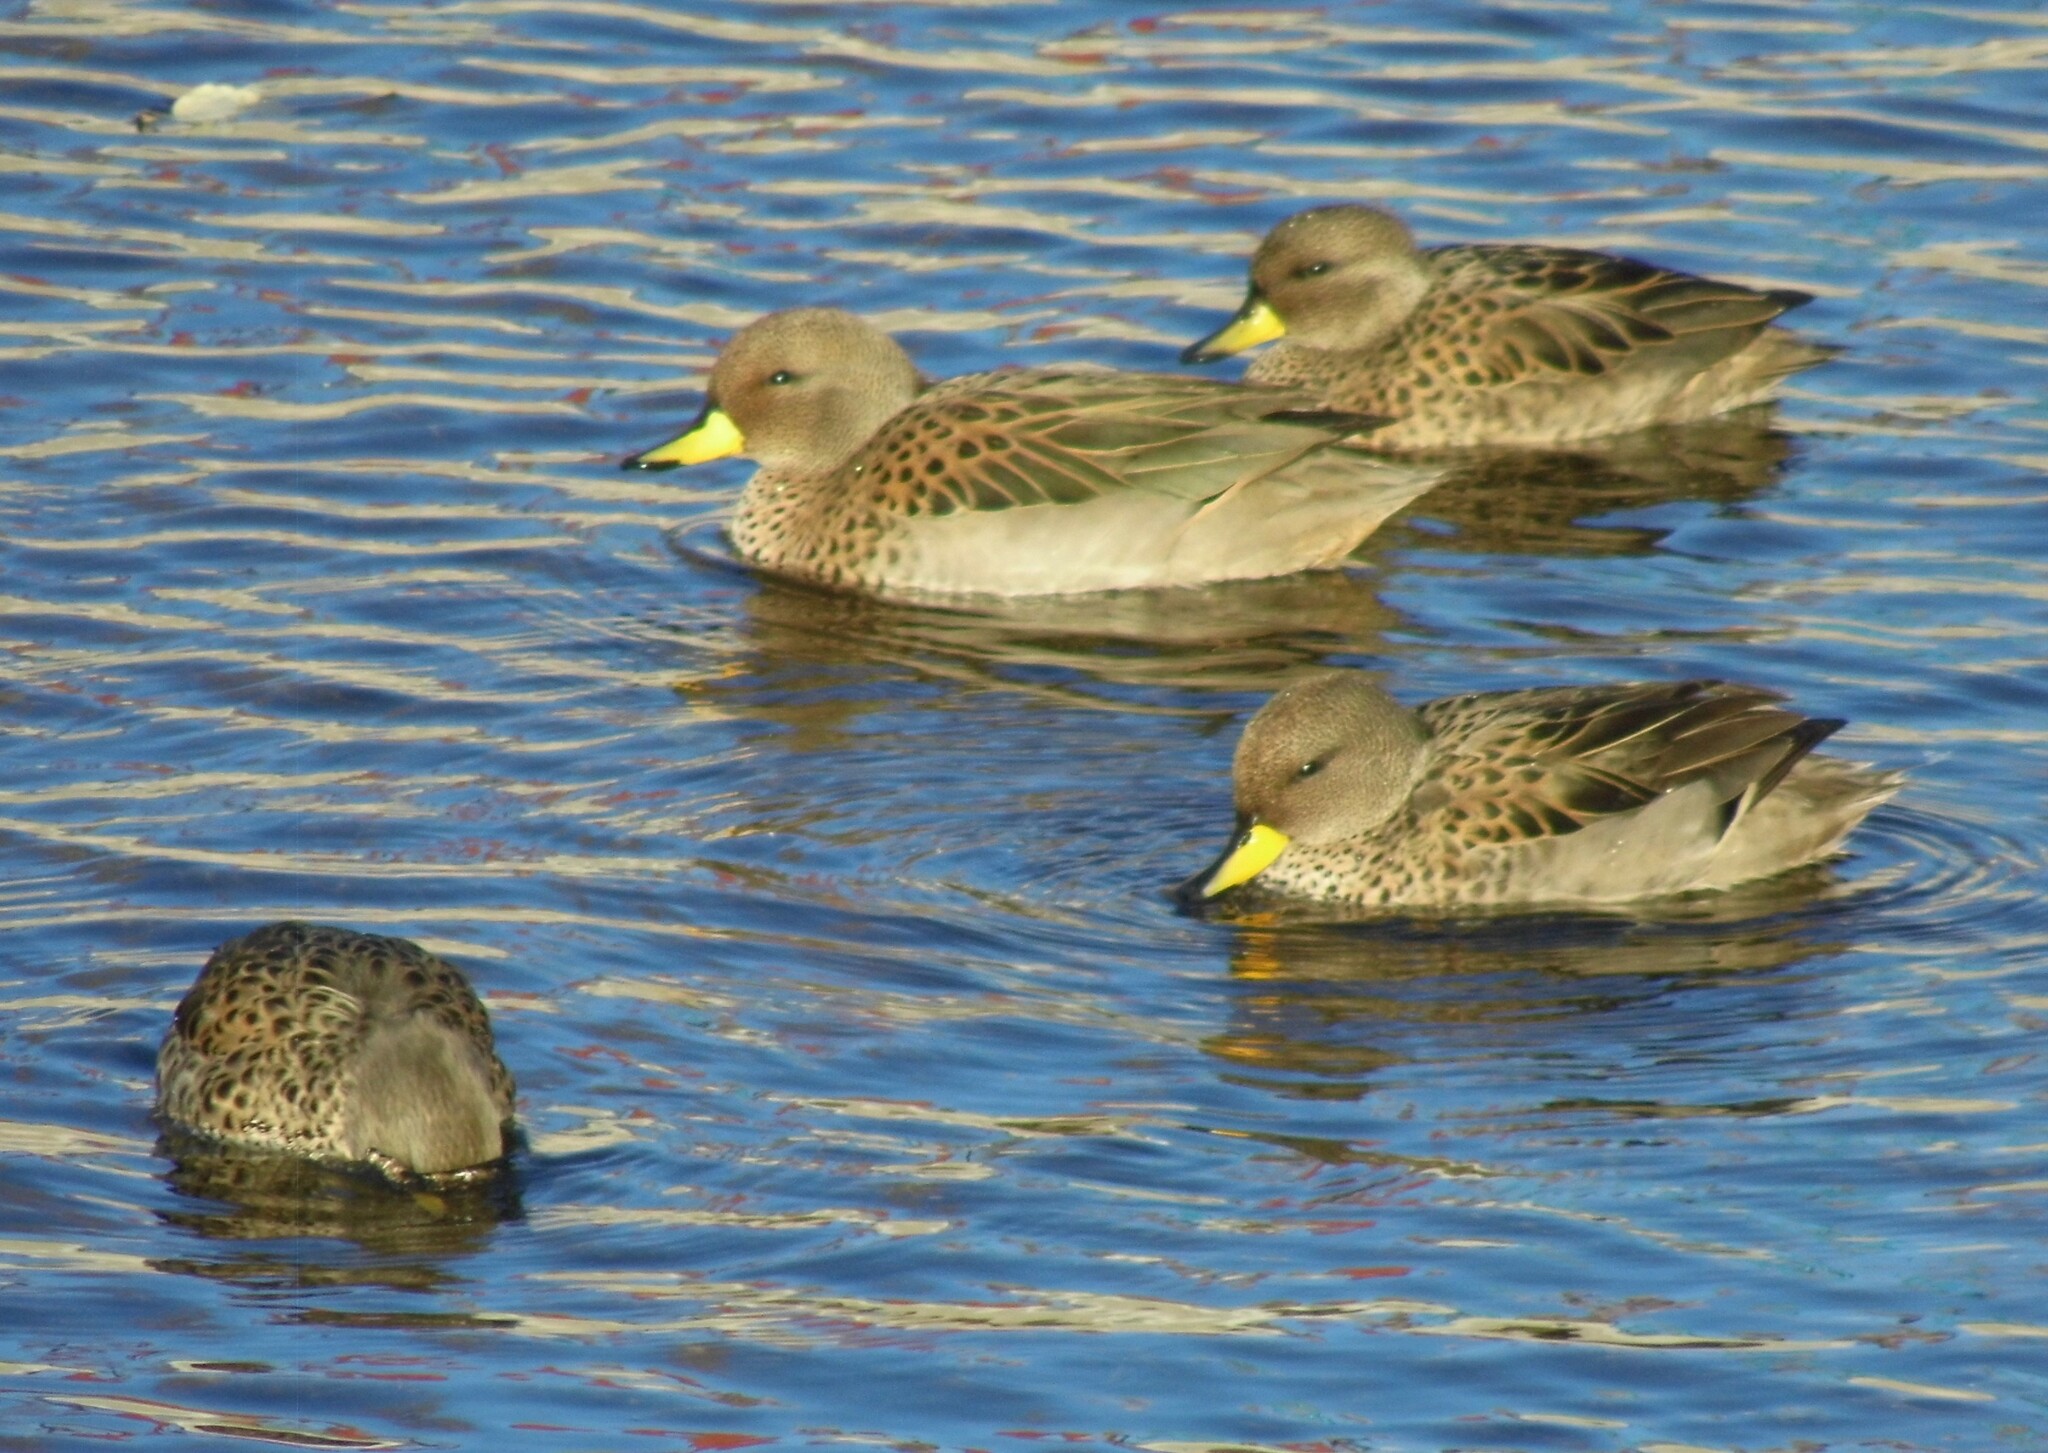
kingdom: Animalia
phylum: Chordata
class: Aves
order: Anseriformes
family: Anatidae
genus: Anas
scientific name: Anas flavirostris
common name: Yellow-billed teal
